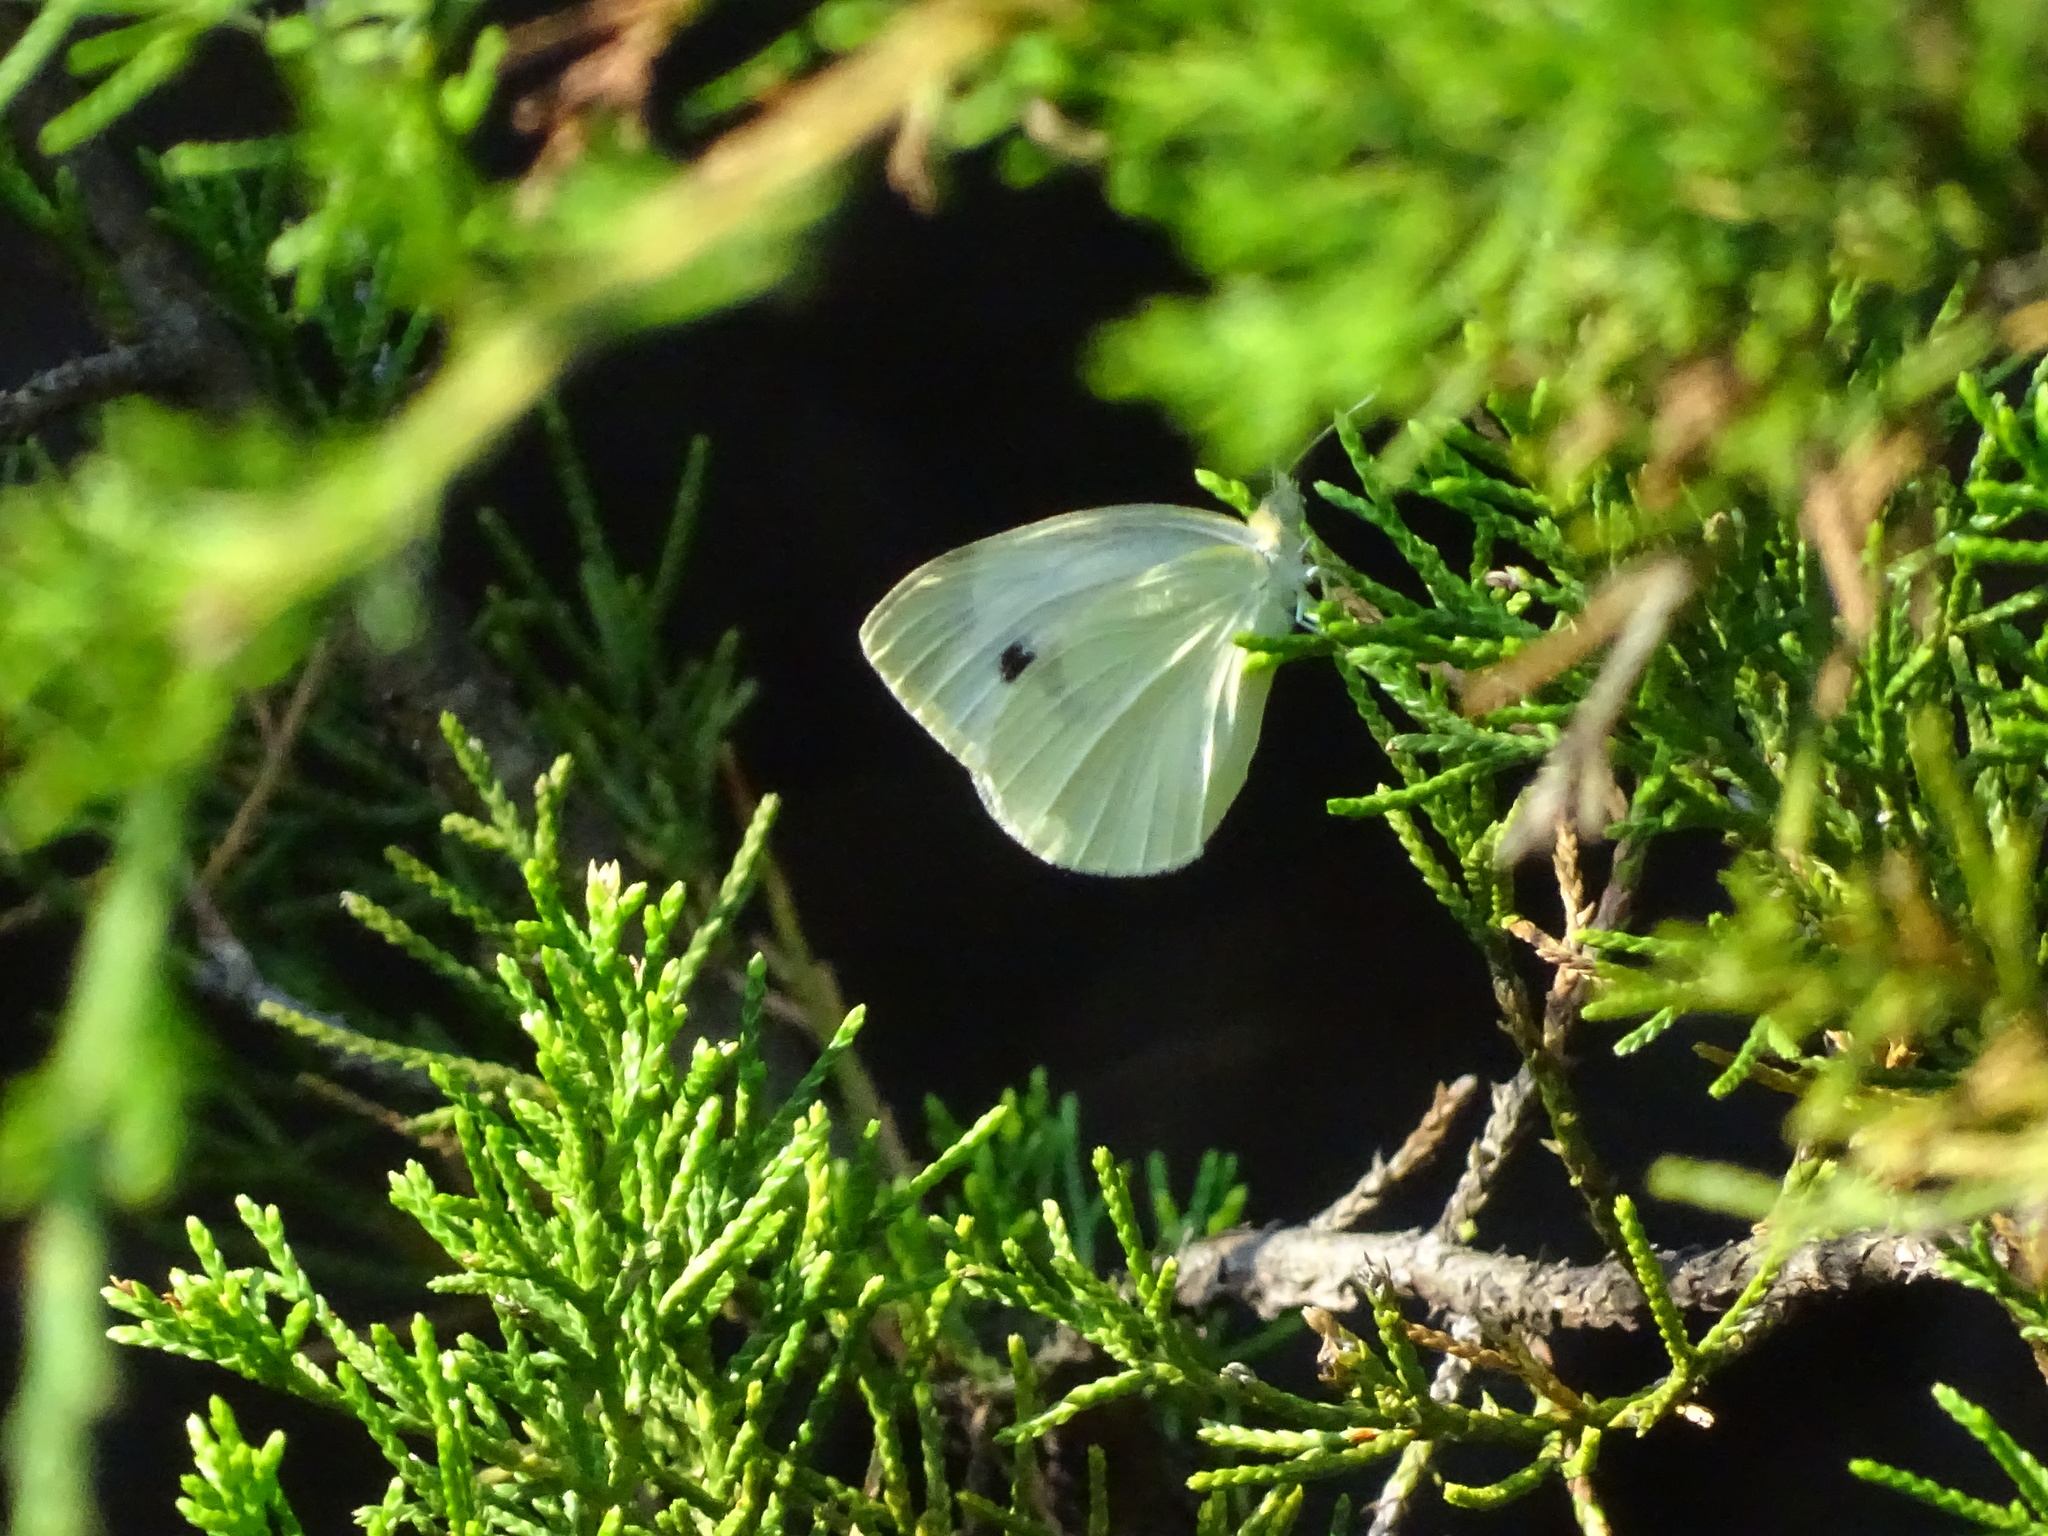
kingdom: Animalia
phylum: Arthropoda
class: Insecta
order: Lepidoptera
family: Pieridae
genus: Pieris
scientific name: Pieris rapae
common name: Small white
